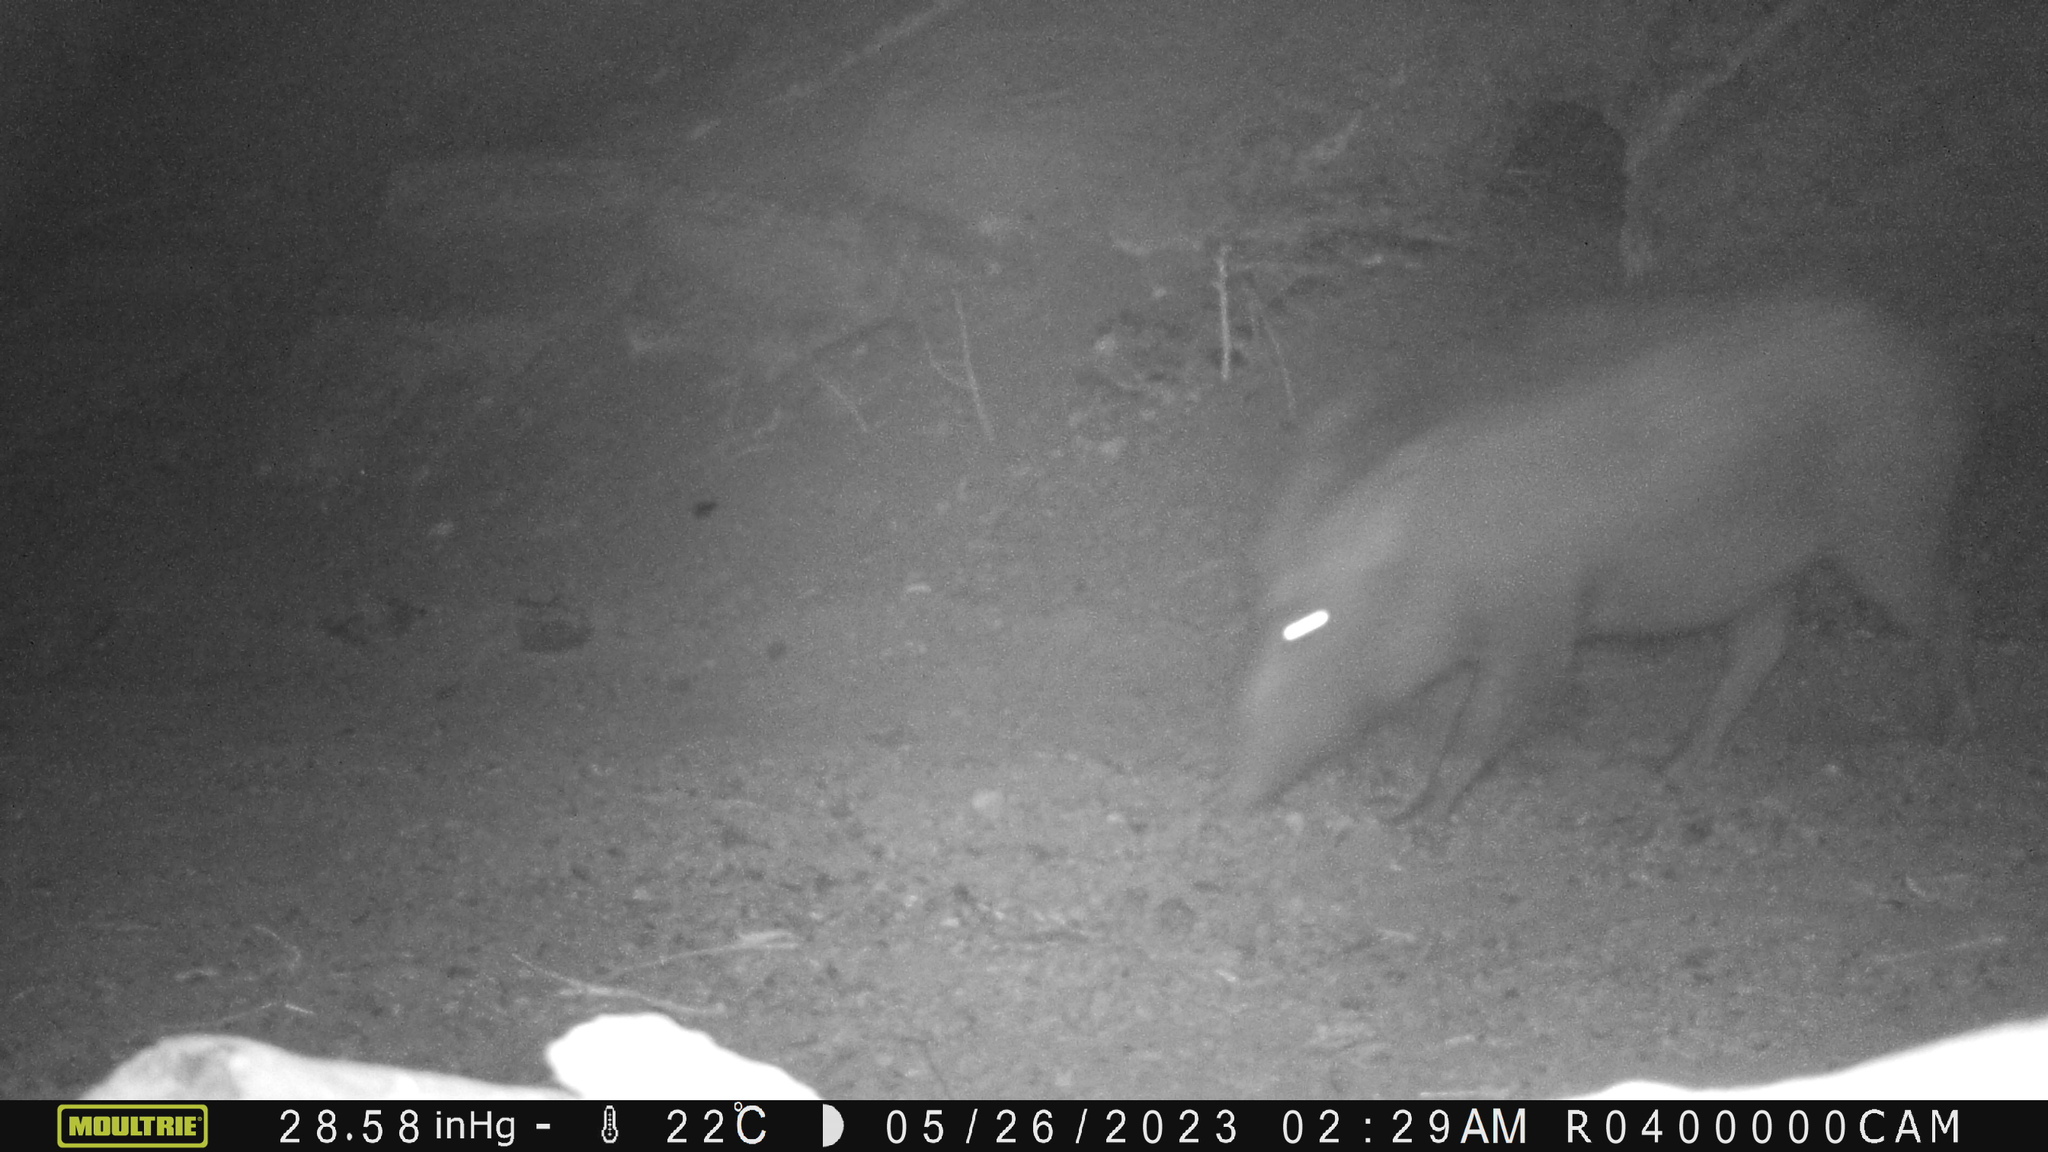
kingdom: Animalia
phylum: Chordata
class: Mammalia
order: Artiodactyla
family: Suidae
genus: Sus
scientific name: Sus scrofa
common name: Wild boar
